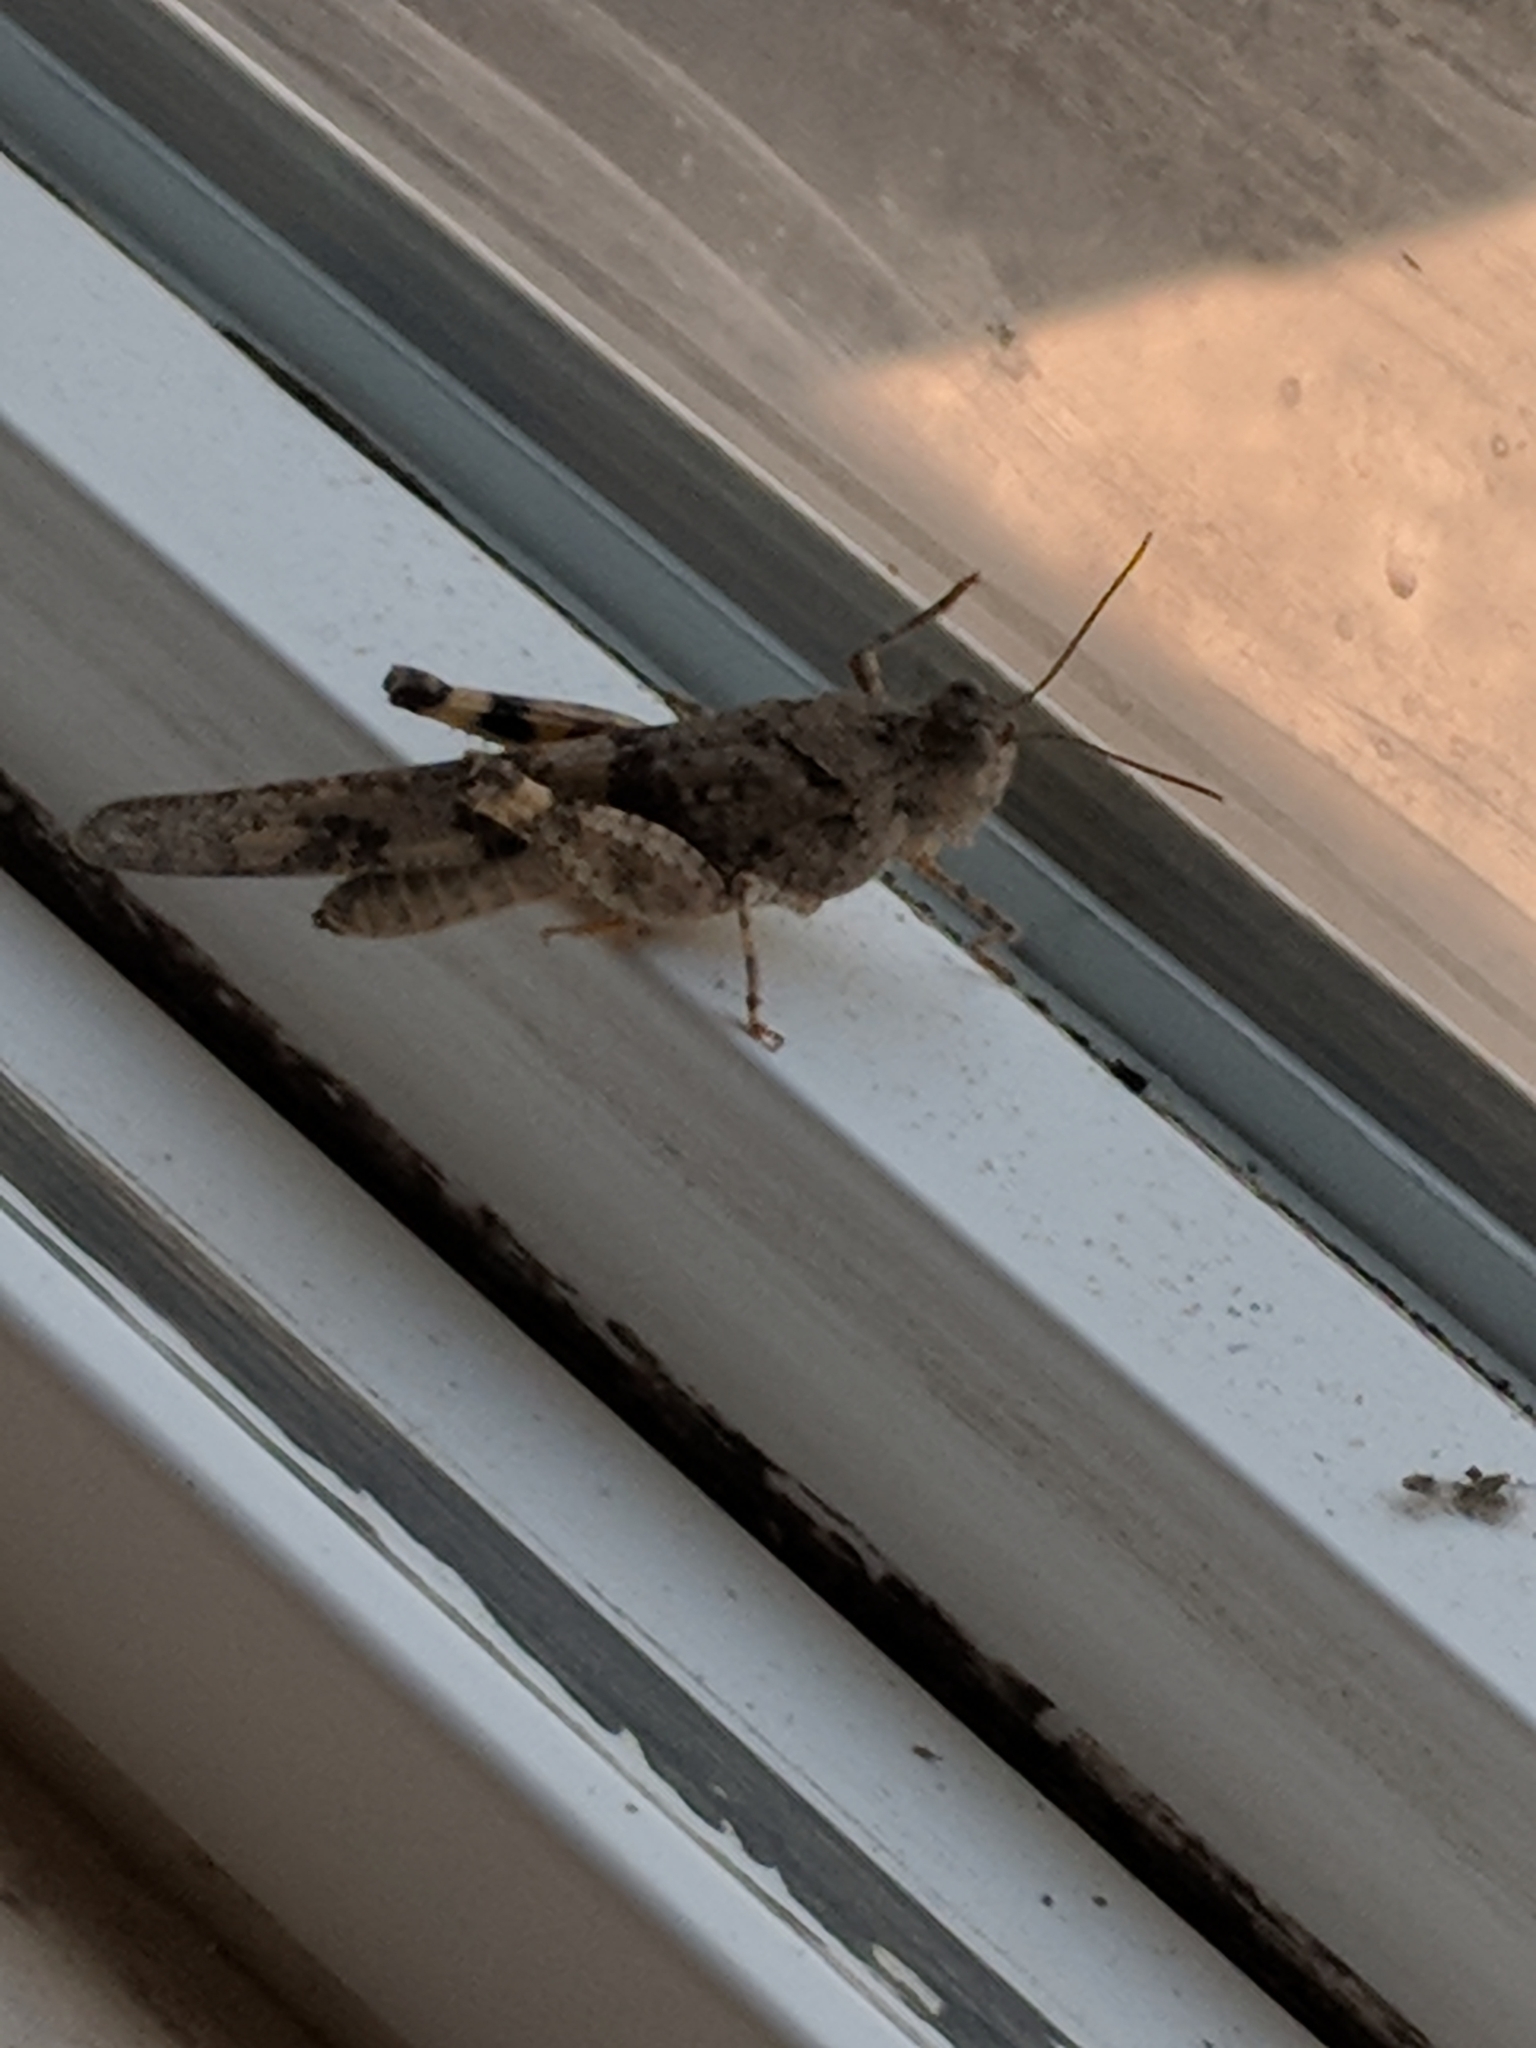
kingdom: Animalia
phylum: Arthropoda
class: Insecta
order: Orthoptera
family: Acrididae
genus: Trimerotropis
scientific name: Trimerotropis pallidipennis
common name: Pallid-winged grasshopper
